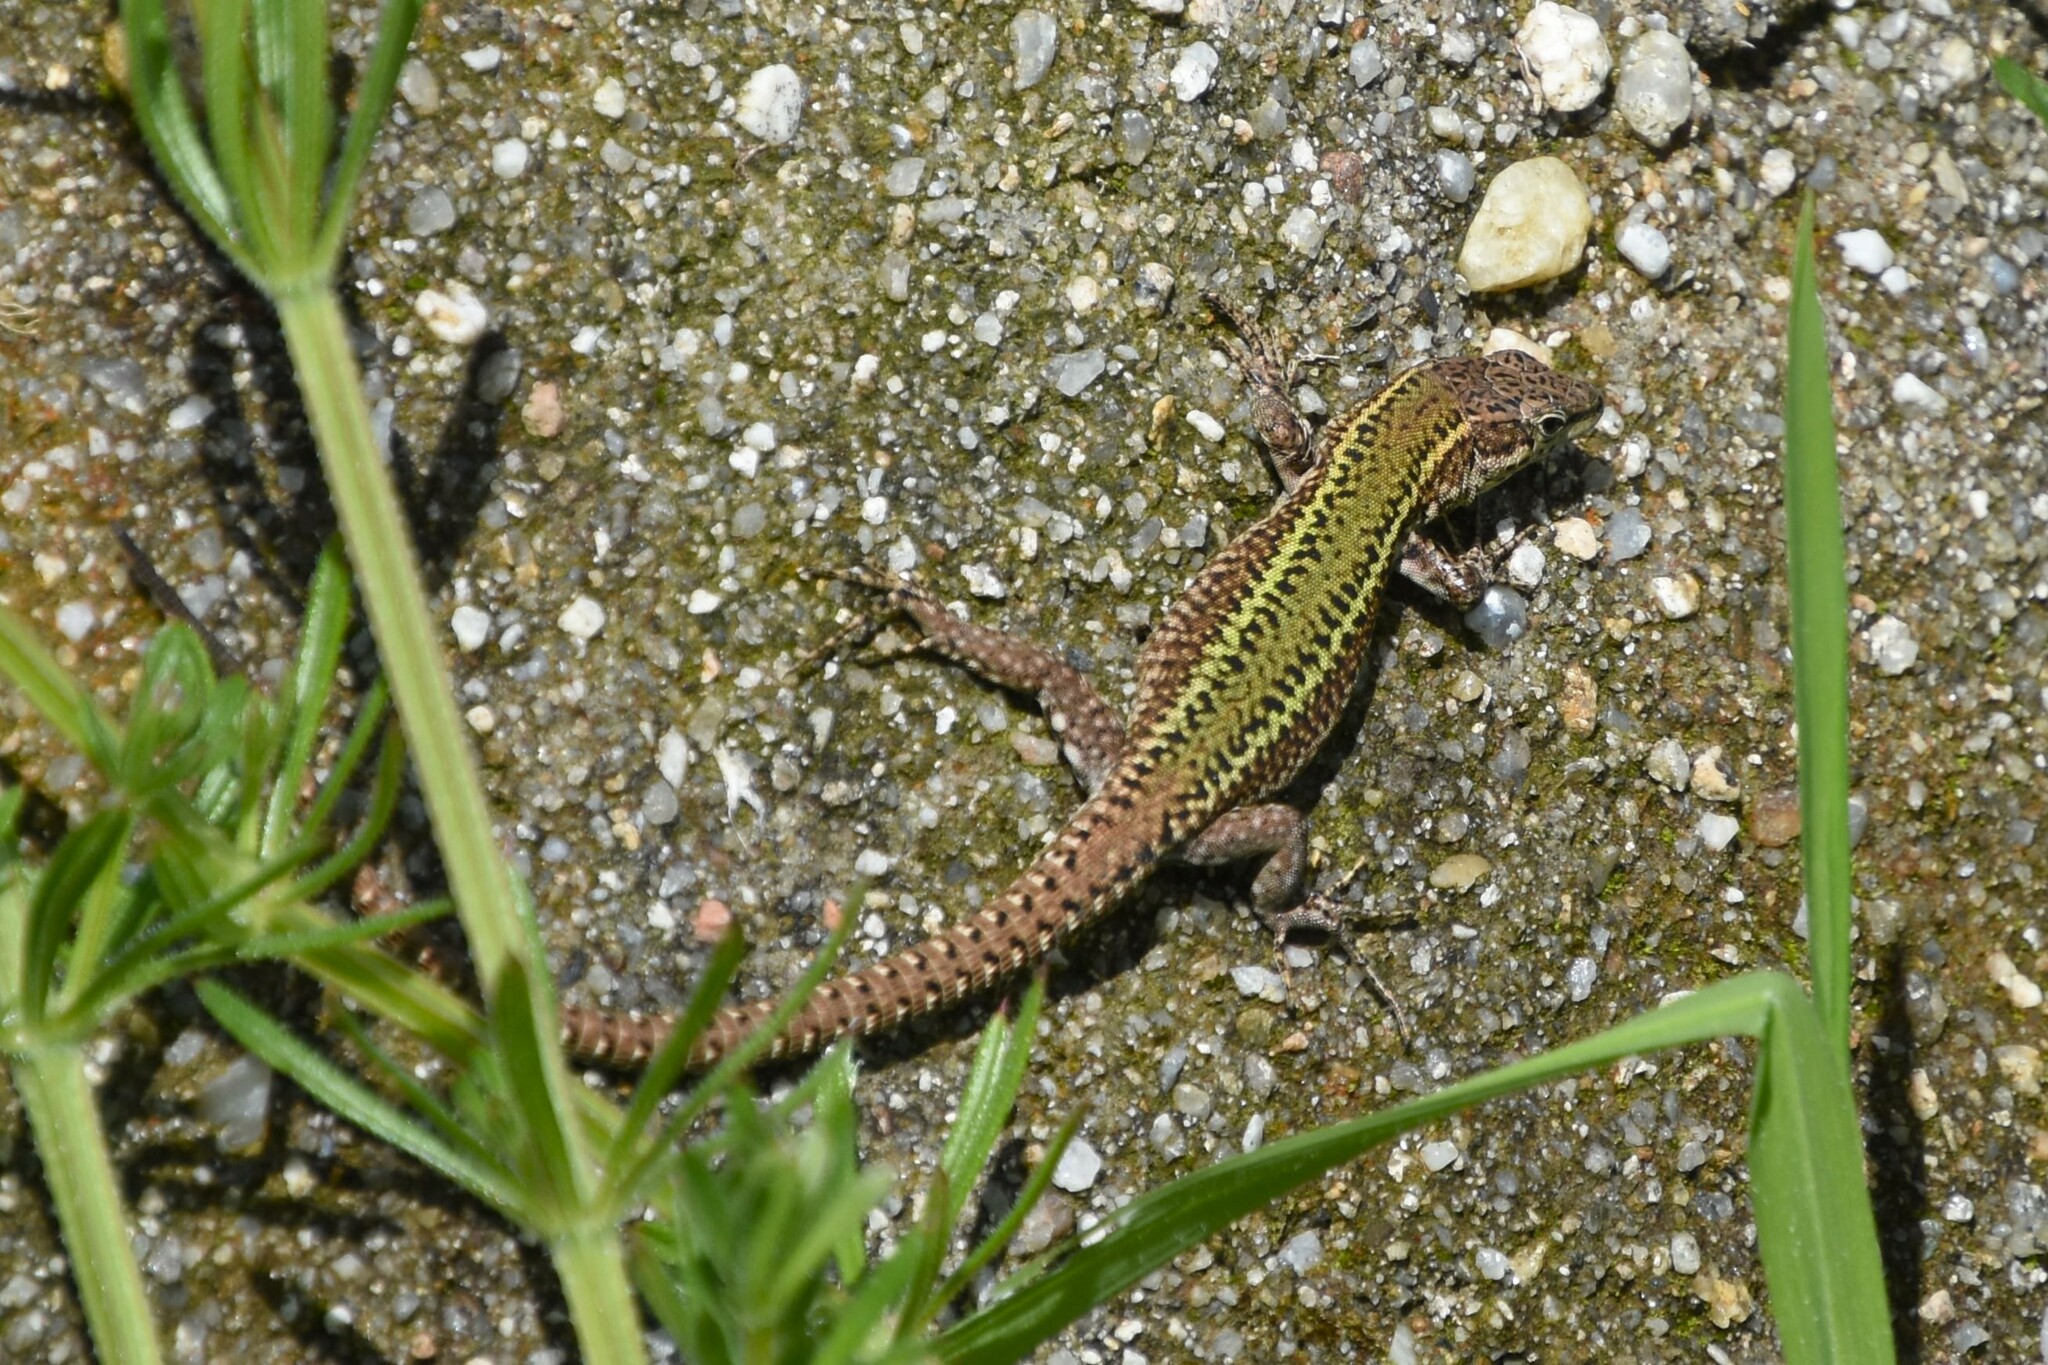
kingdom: Animalia
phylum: Chordata
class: Squamata
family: Lacertidae
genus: Podarcis
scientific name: Podarcis bocagei
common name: Bocage's wall lizard
